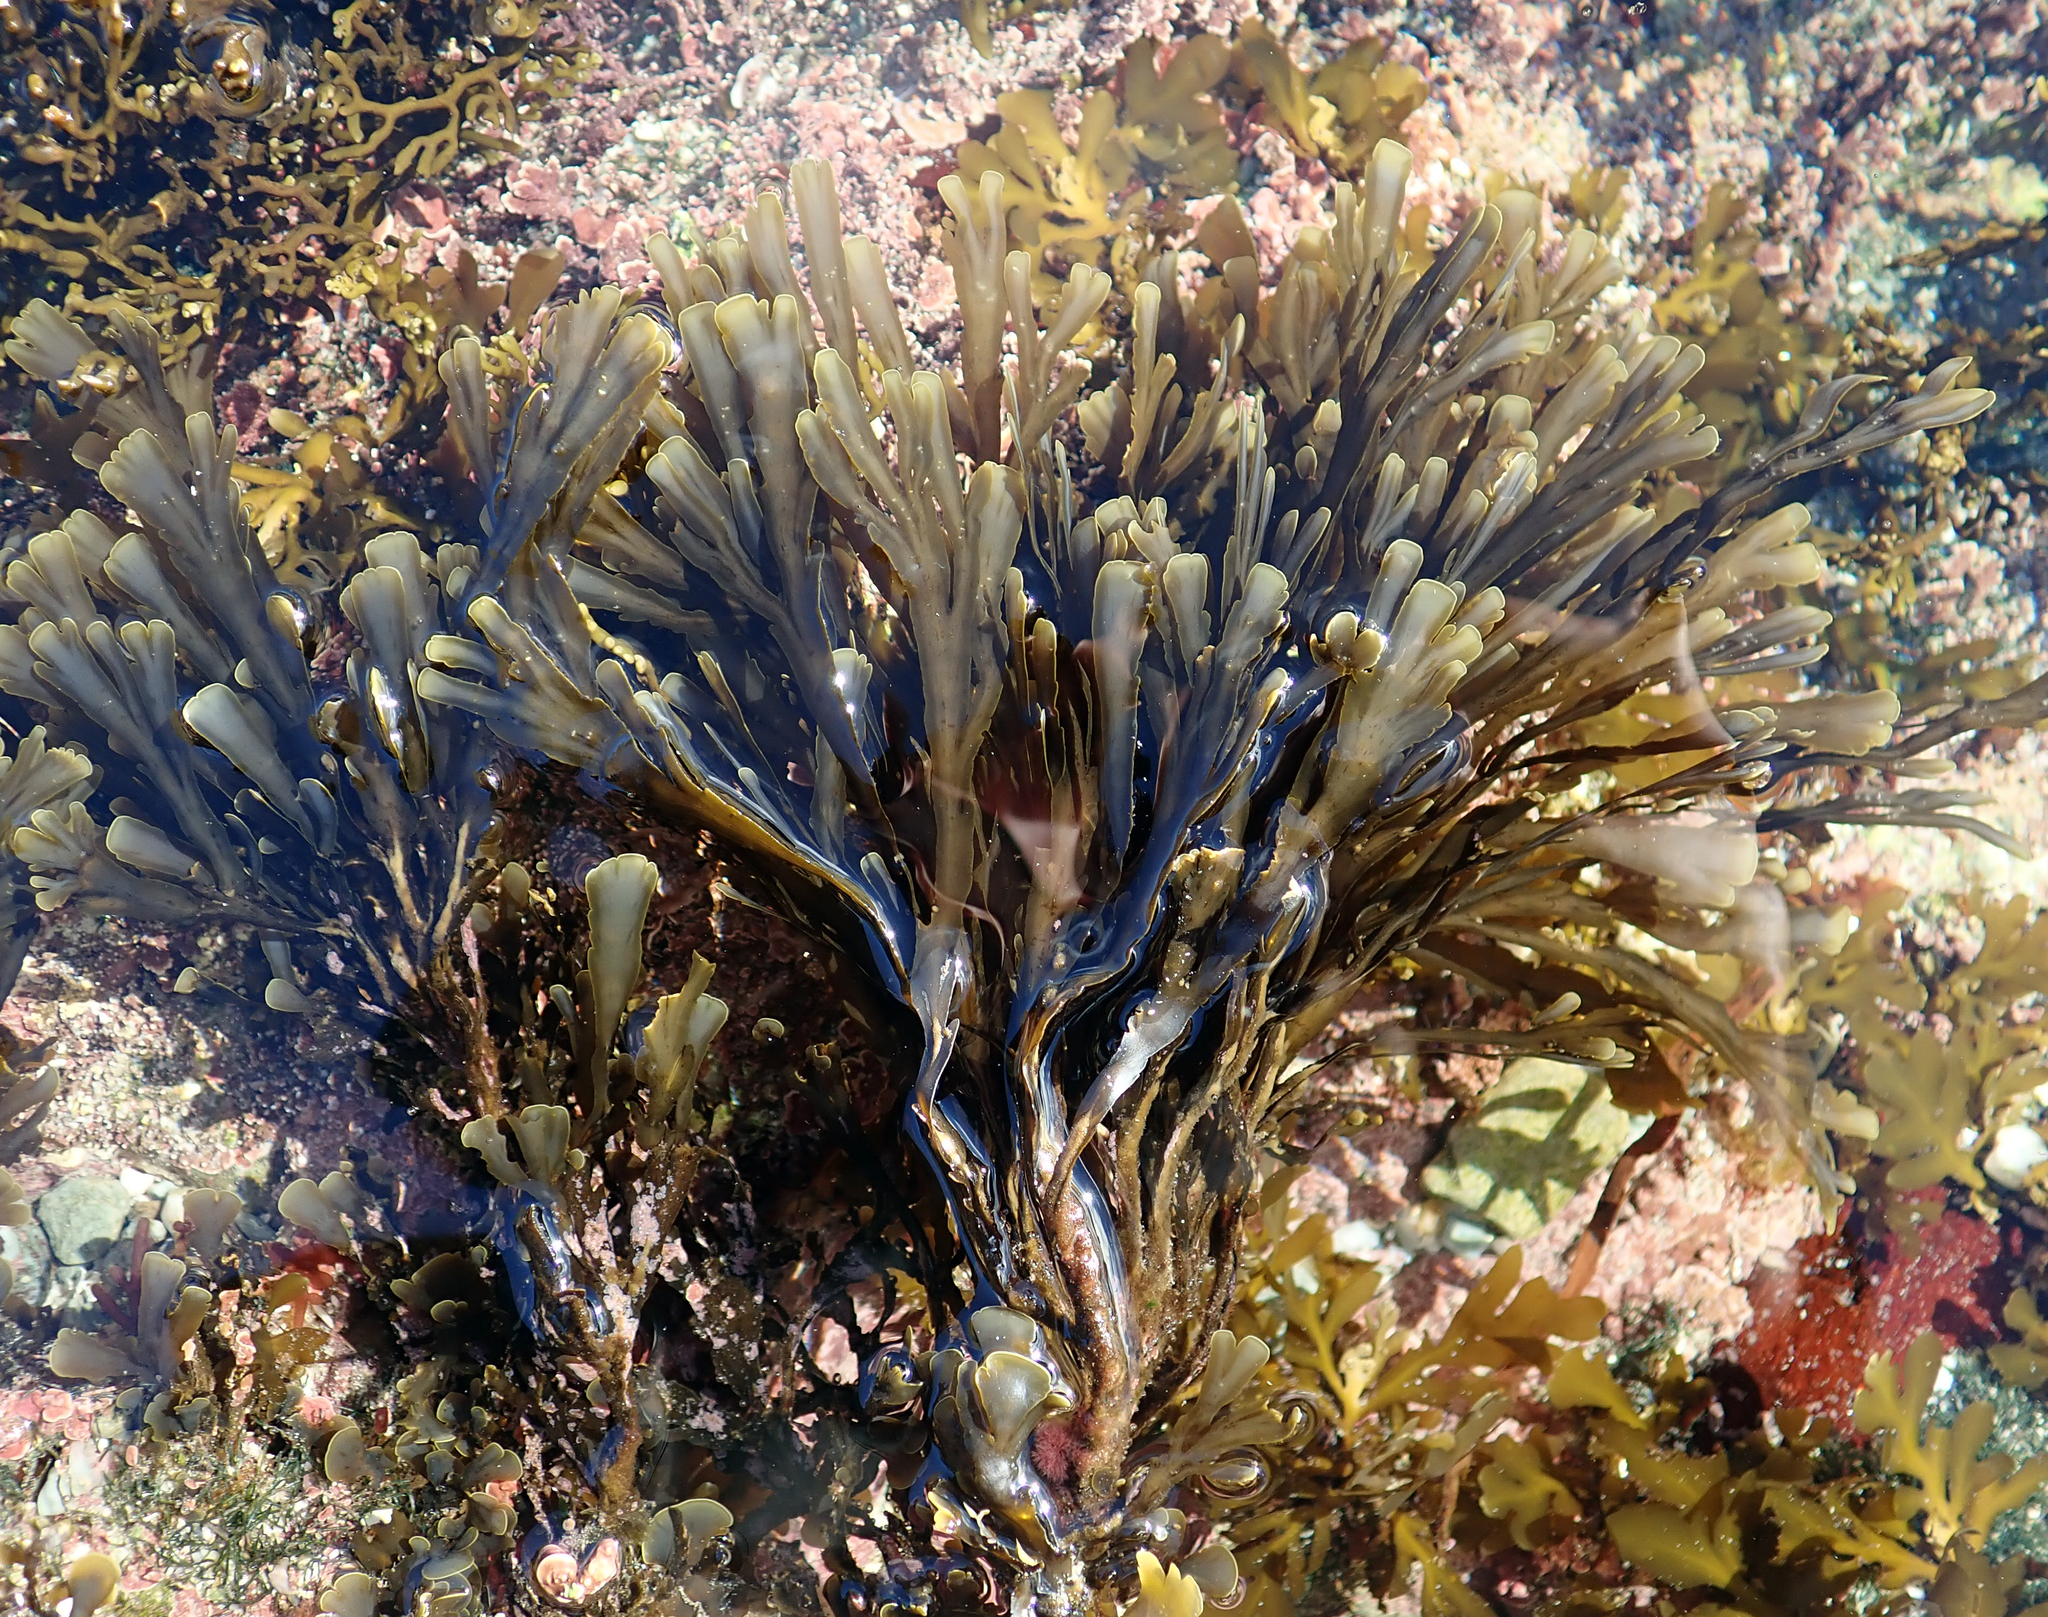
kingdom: Chromista
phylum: Ochrophyta
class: Phaeophyceae
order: Dictyotales
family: Dictyotaceae
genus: Zonaria
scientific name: Zonaria turneriana
